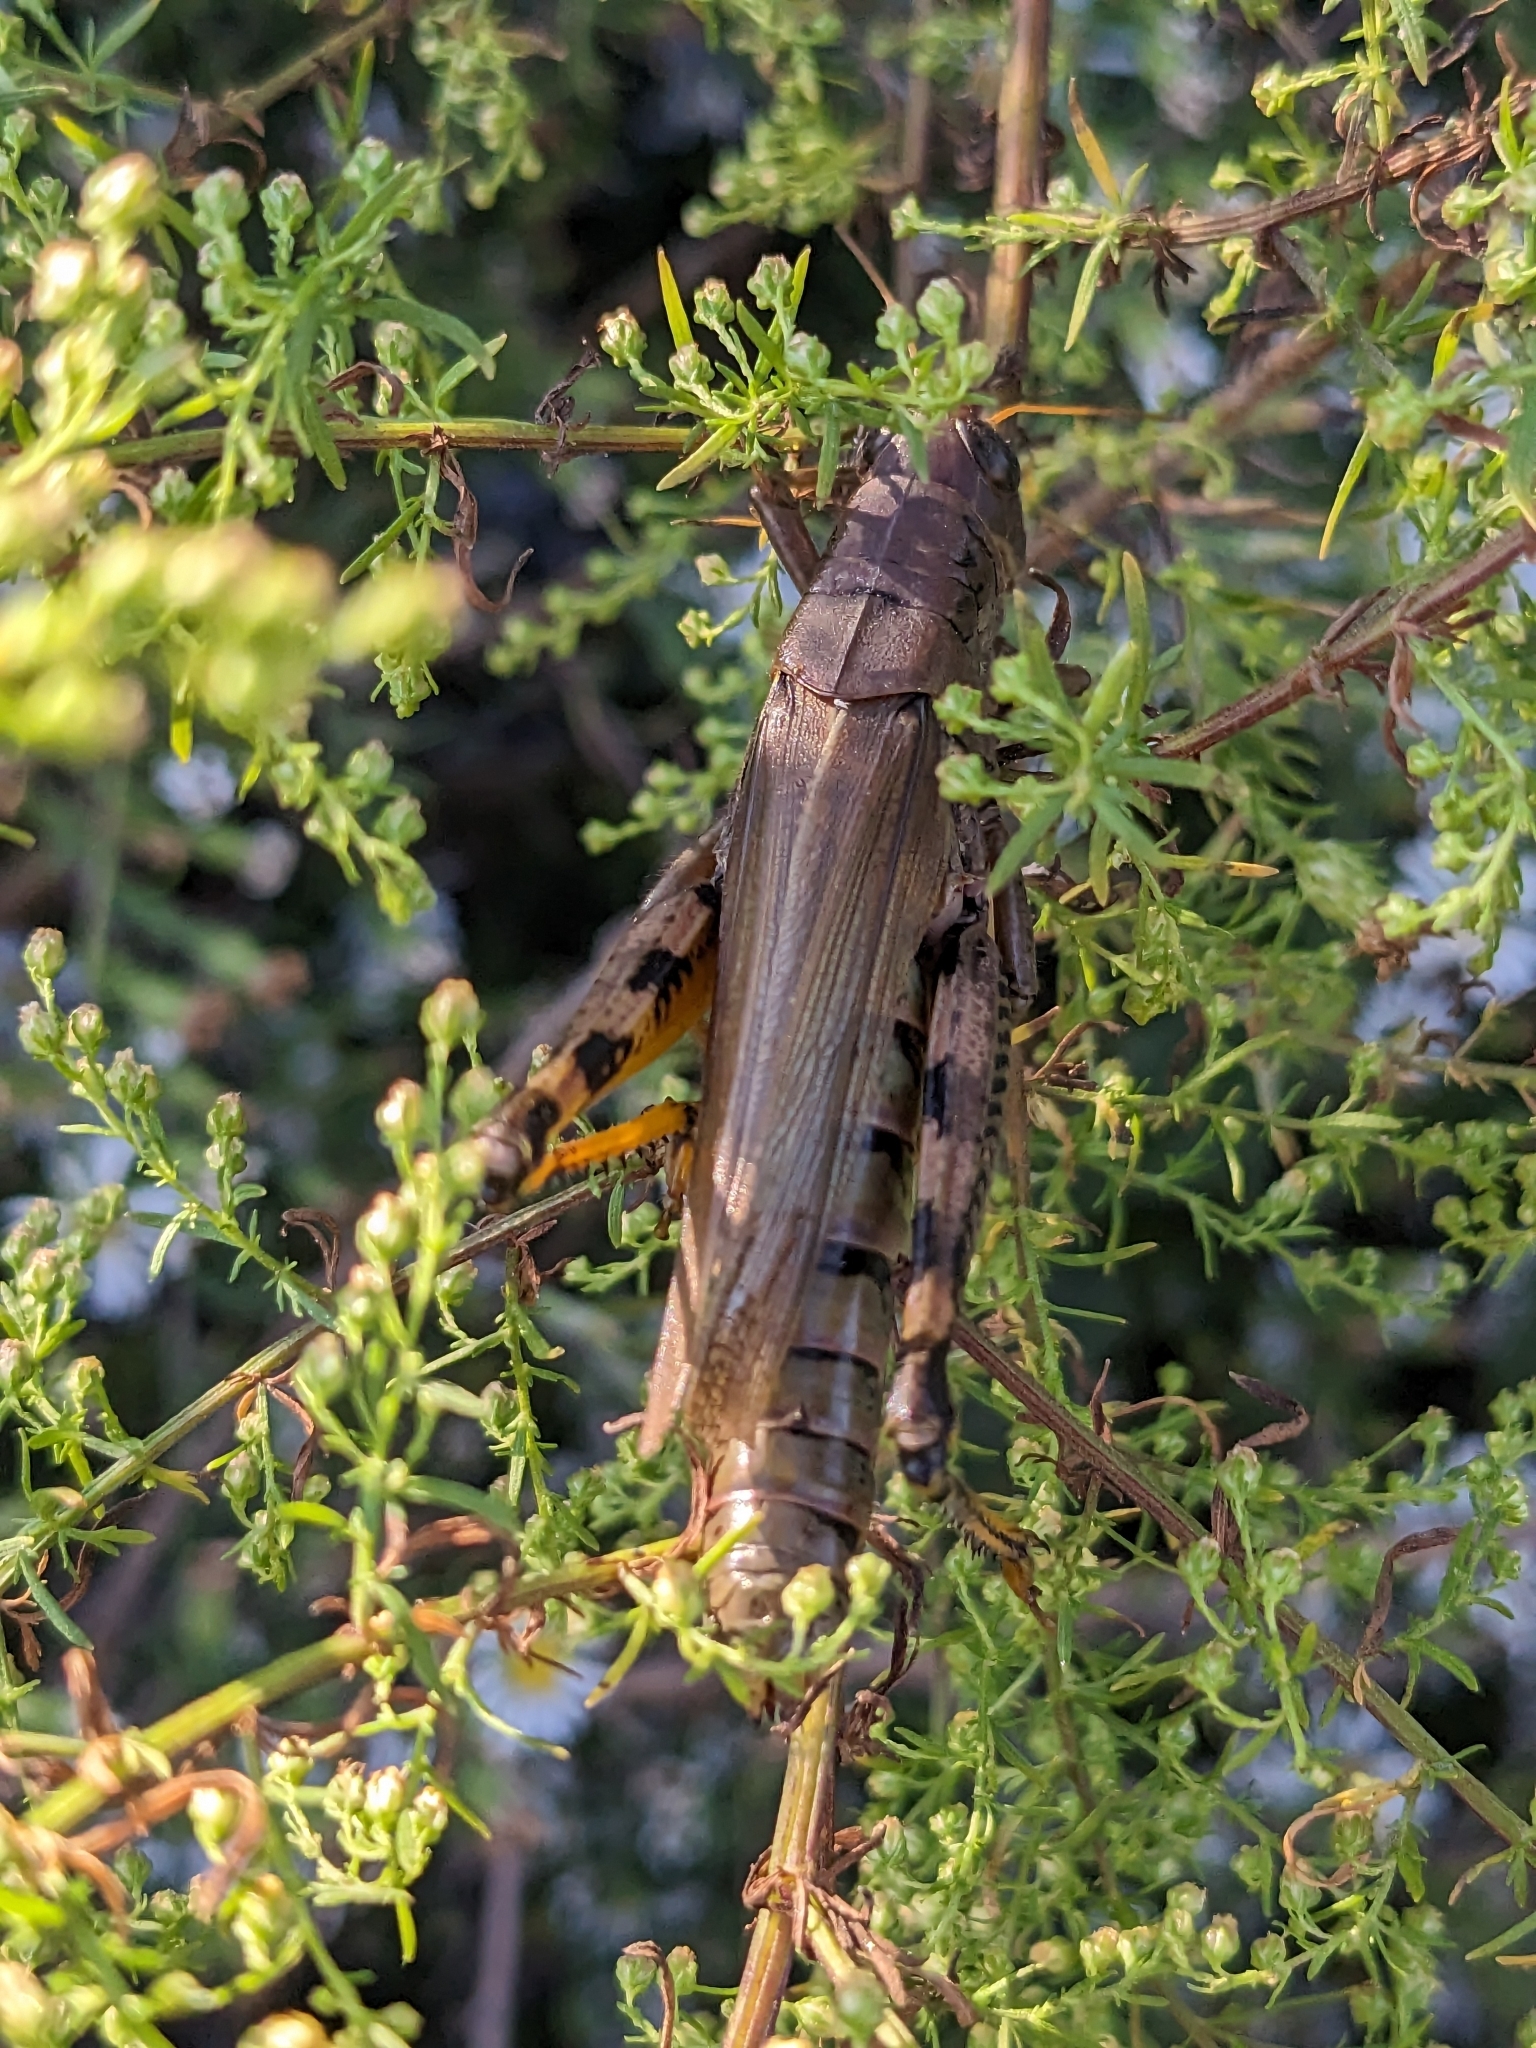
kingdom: Animalia
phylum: Arthropoda
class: Insecta
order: Orthoptera
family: Acrididae
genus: Melanoplus
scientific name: Melanoplus differentialis
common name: Differential grasshopper
